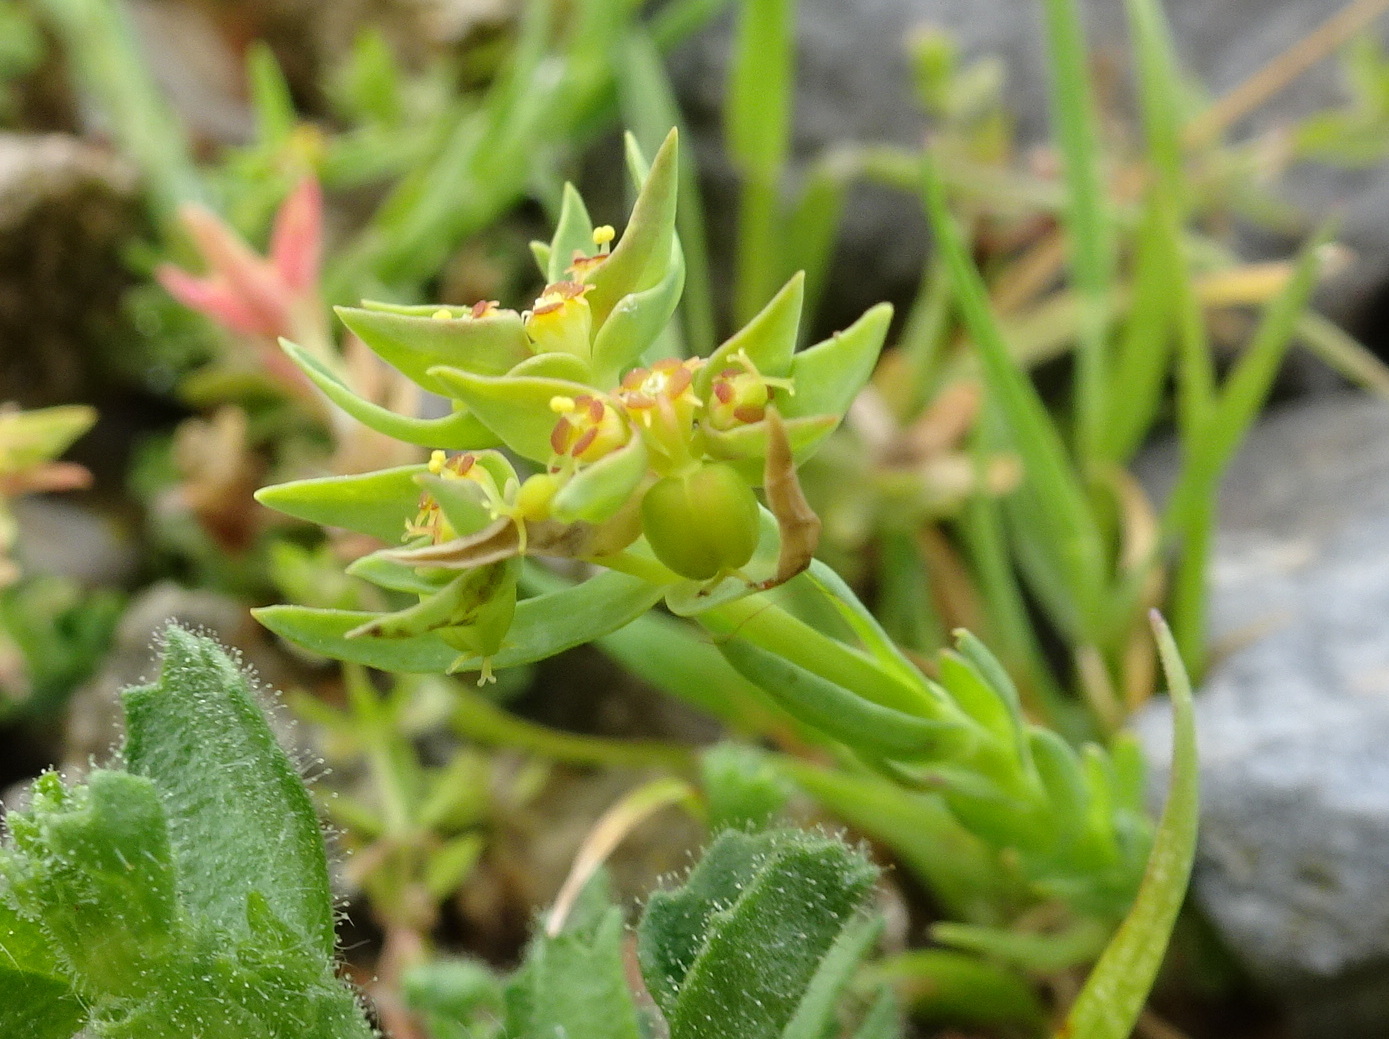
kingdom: Plantae
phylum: Tracheophyta
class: Magnoliopsida
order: Malpighiales
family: Euphorbiaceae
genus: Euphorbia
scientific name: Euphorbia sulcata
